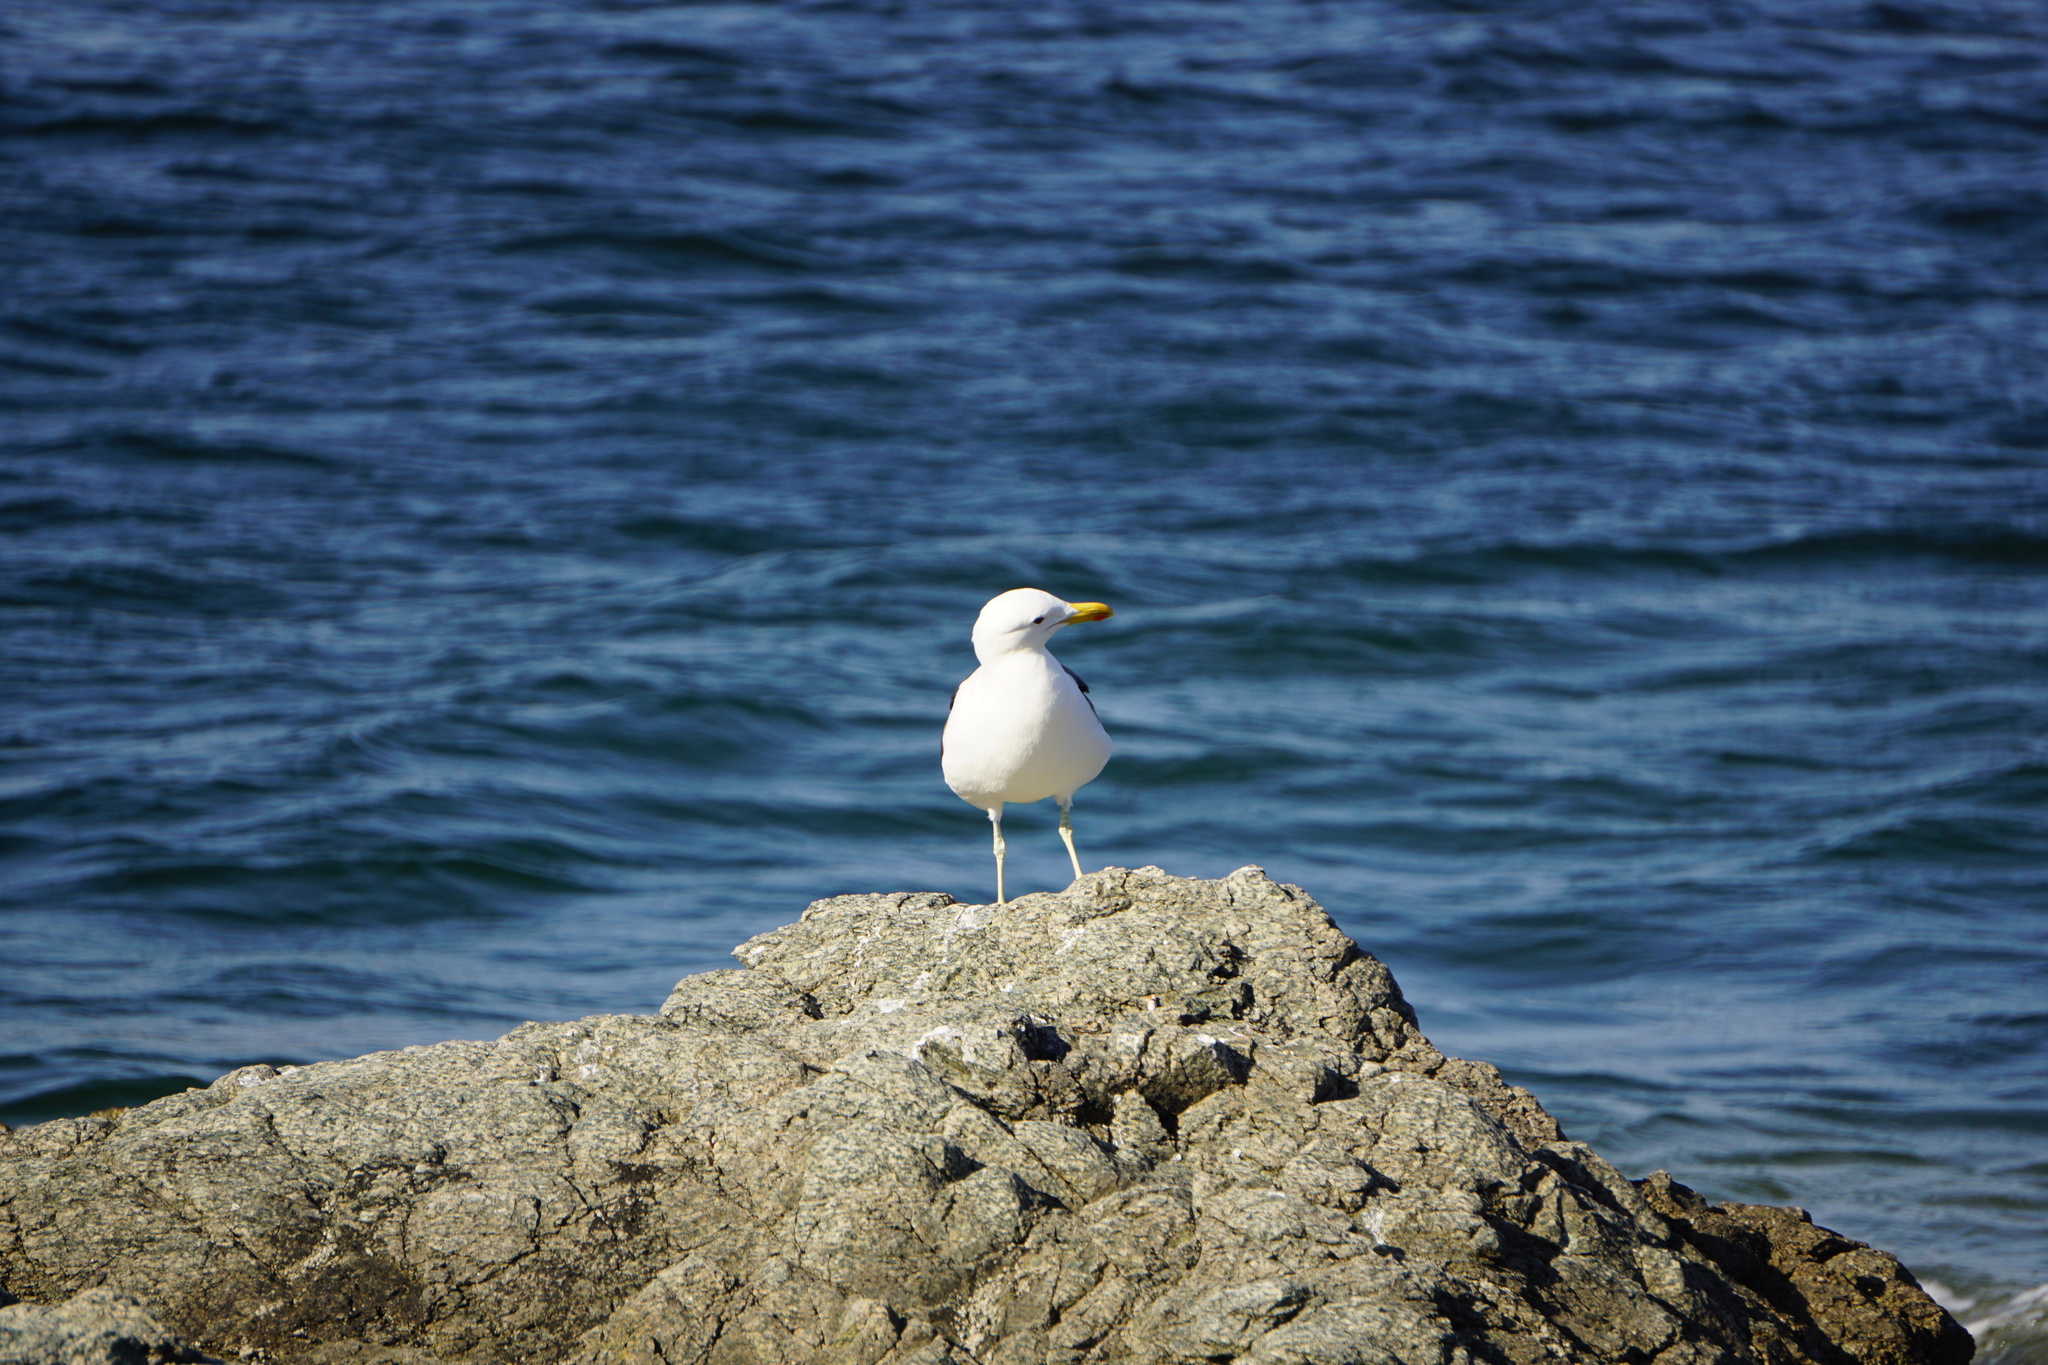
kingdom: Animalia
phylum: Chordata
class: Aves
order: Charadriiformes
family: Laridae
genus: Larus
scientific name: Larus dominicanus
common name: Kelp gull
